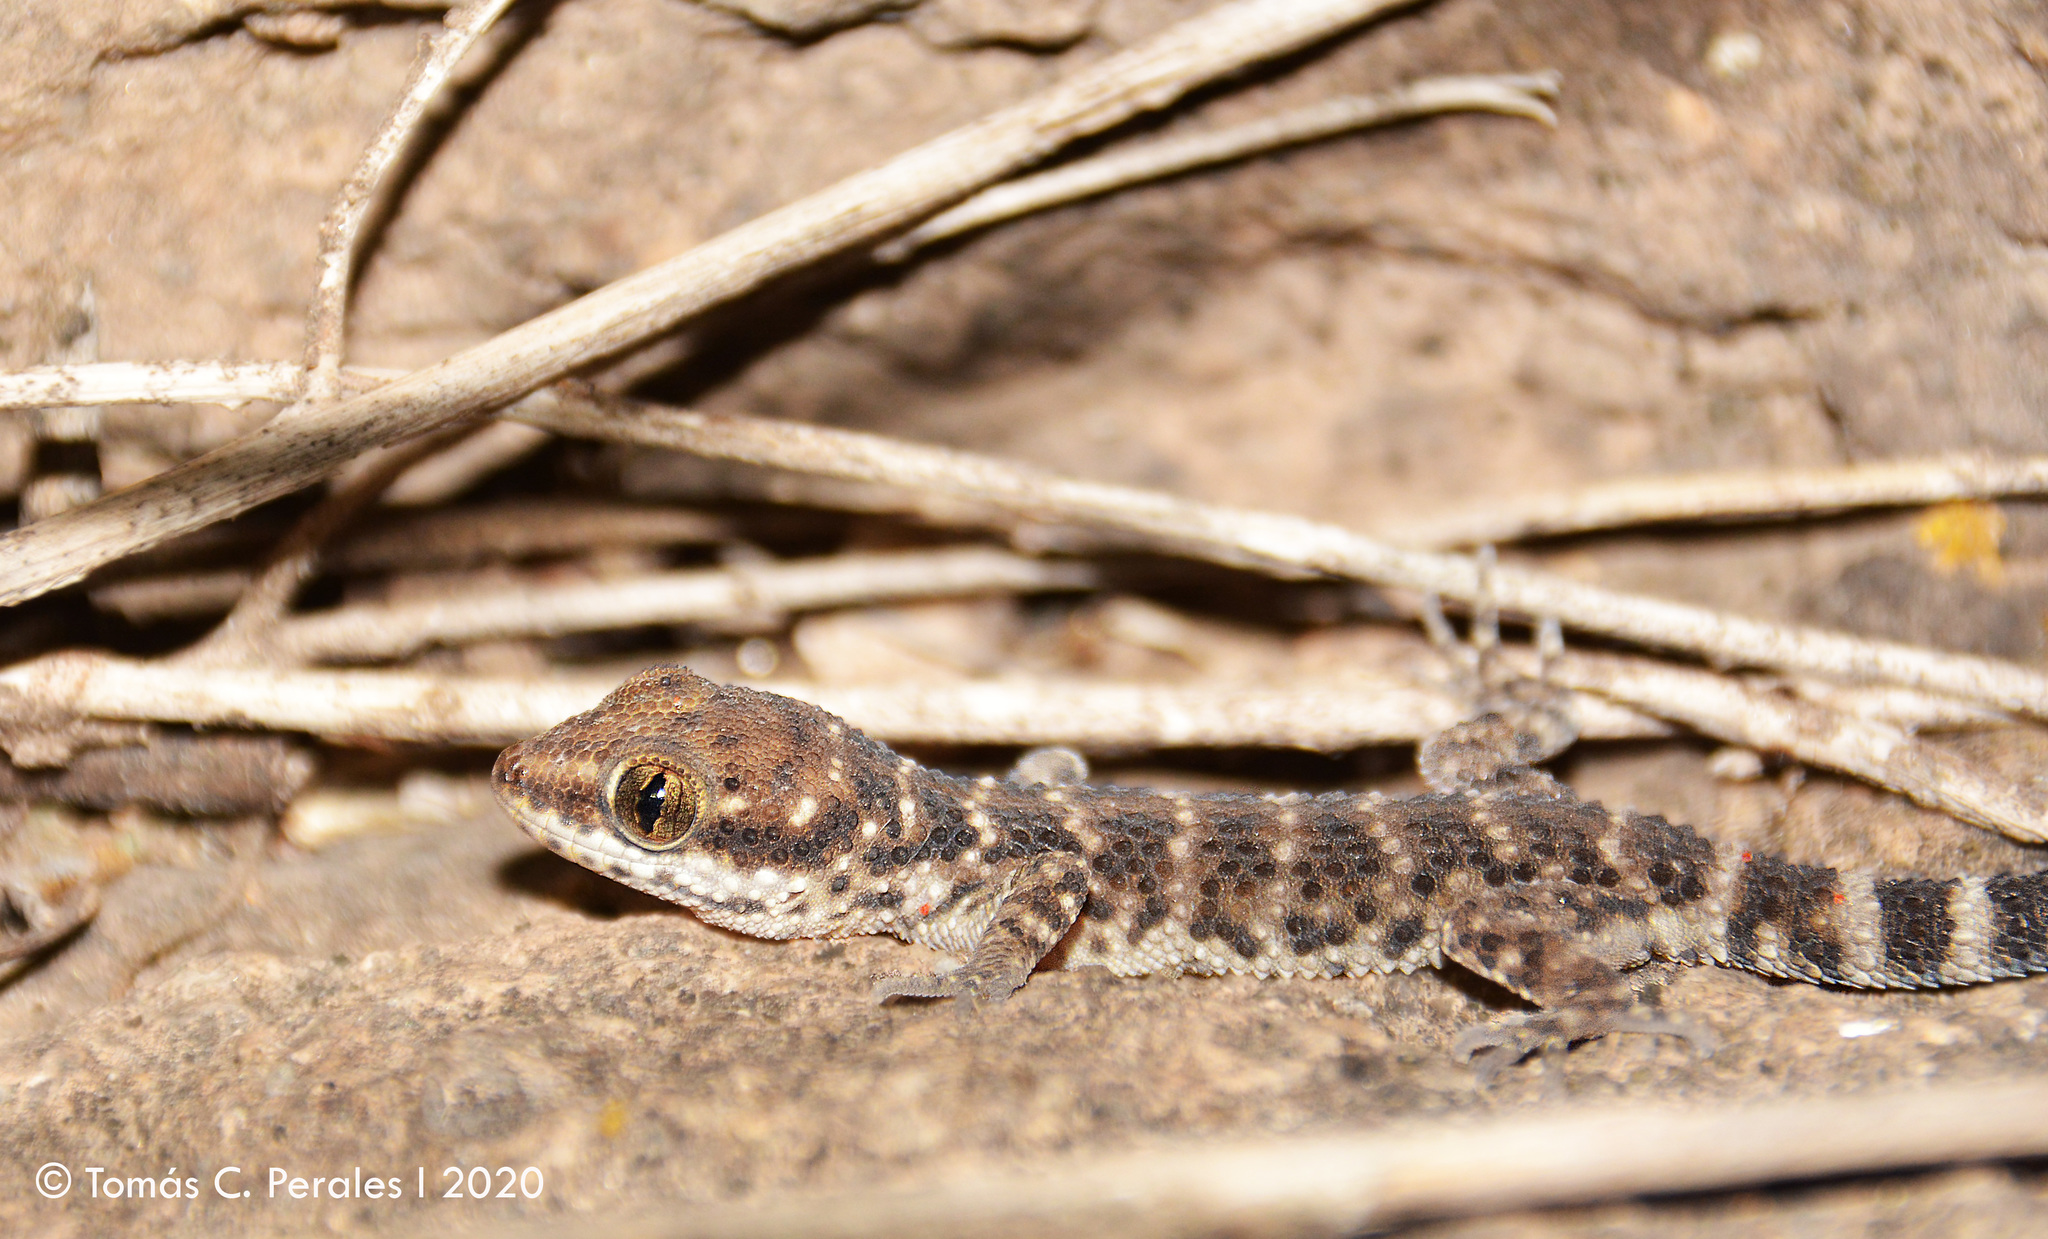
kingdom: Animalia
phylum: Chordata
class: Squamata
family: Phyllodactylidae
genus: Homonota
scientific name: Homonota horrida
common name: South american marked gecko
